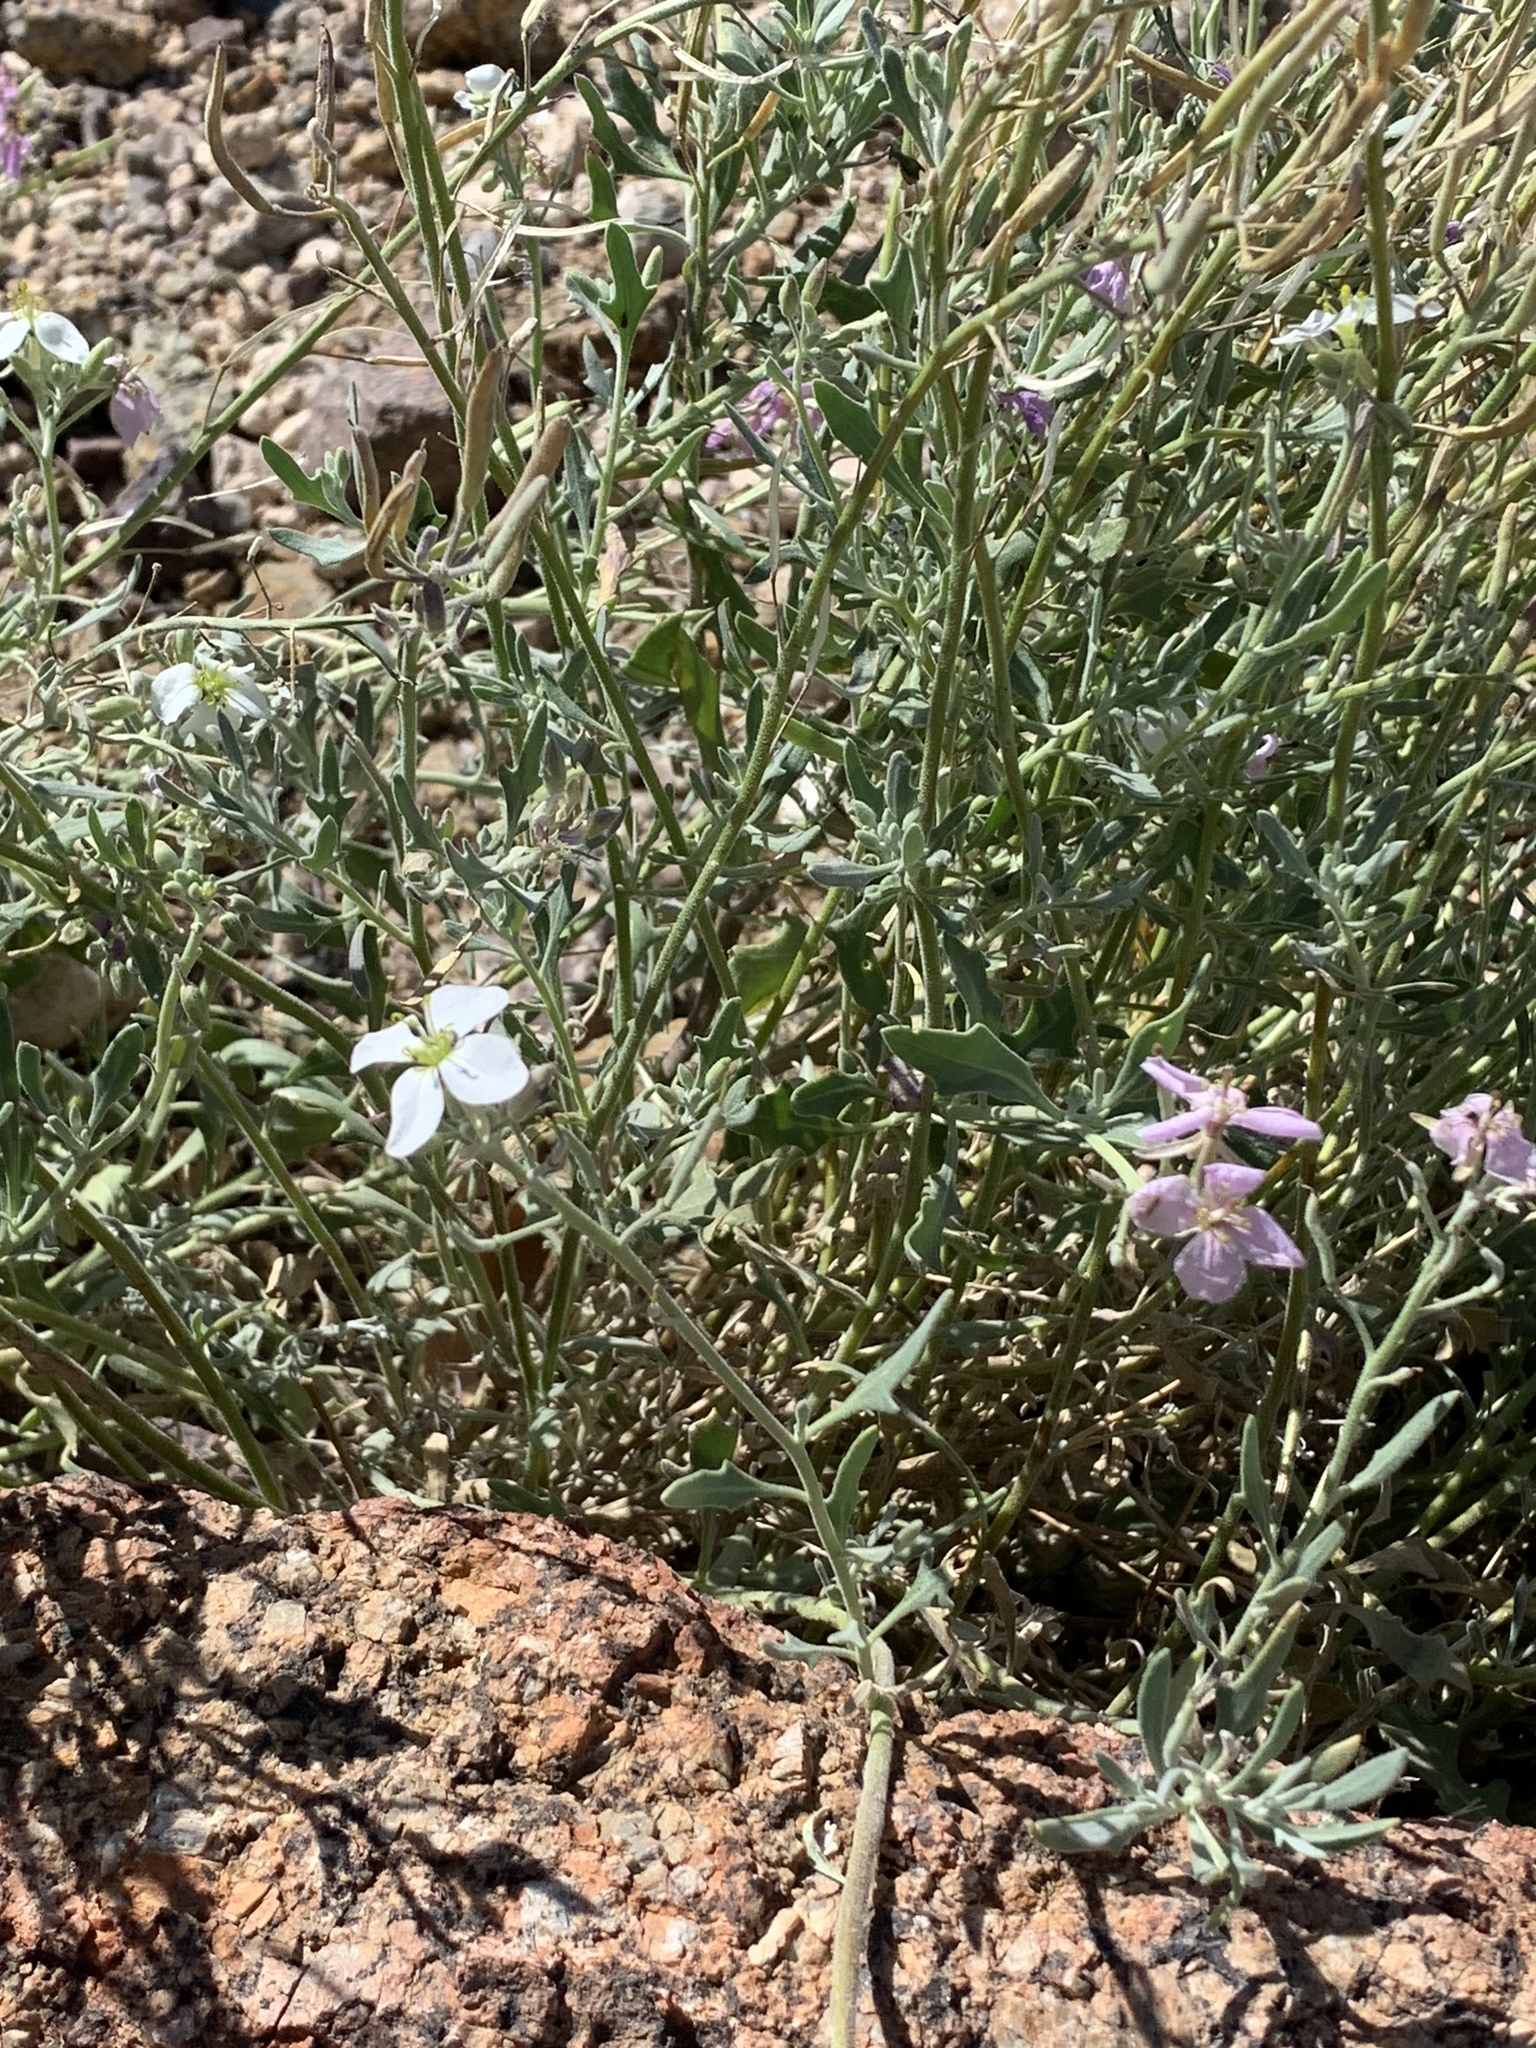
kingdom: Plantae
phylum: Tracheophyta
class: Magnoliopsida
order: Brassicales
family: Brassicaceae
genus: Nerisyrenia
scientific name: Nerisyrenia camporum
